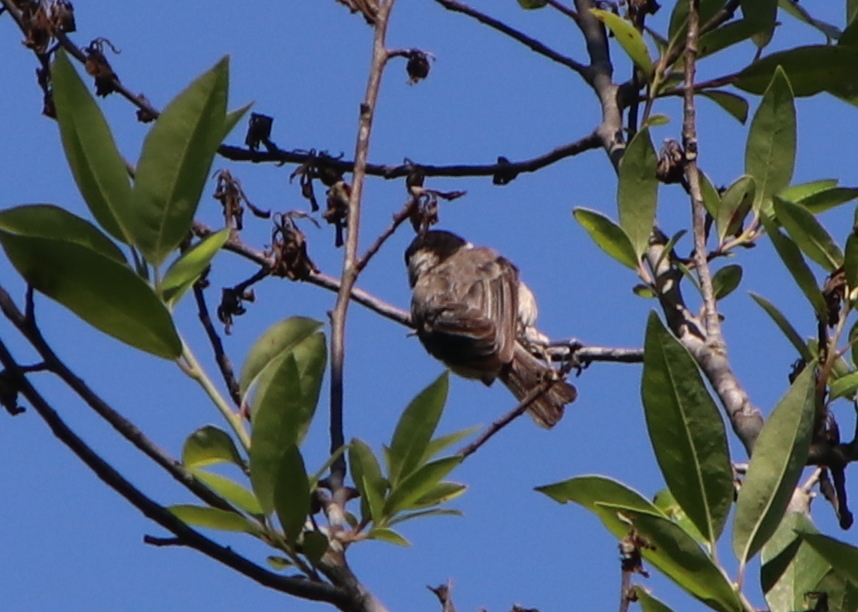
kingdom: Animalia
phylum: Chordata
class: Aves
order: Passeriformes
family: Paridae
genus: Poecile
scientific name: Poecile carolinensis
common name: Carolina chickadee
